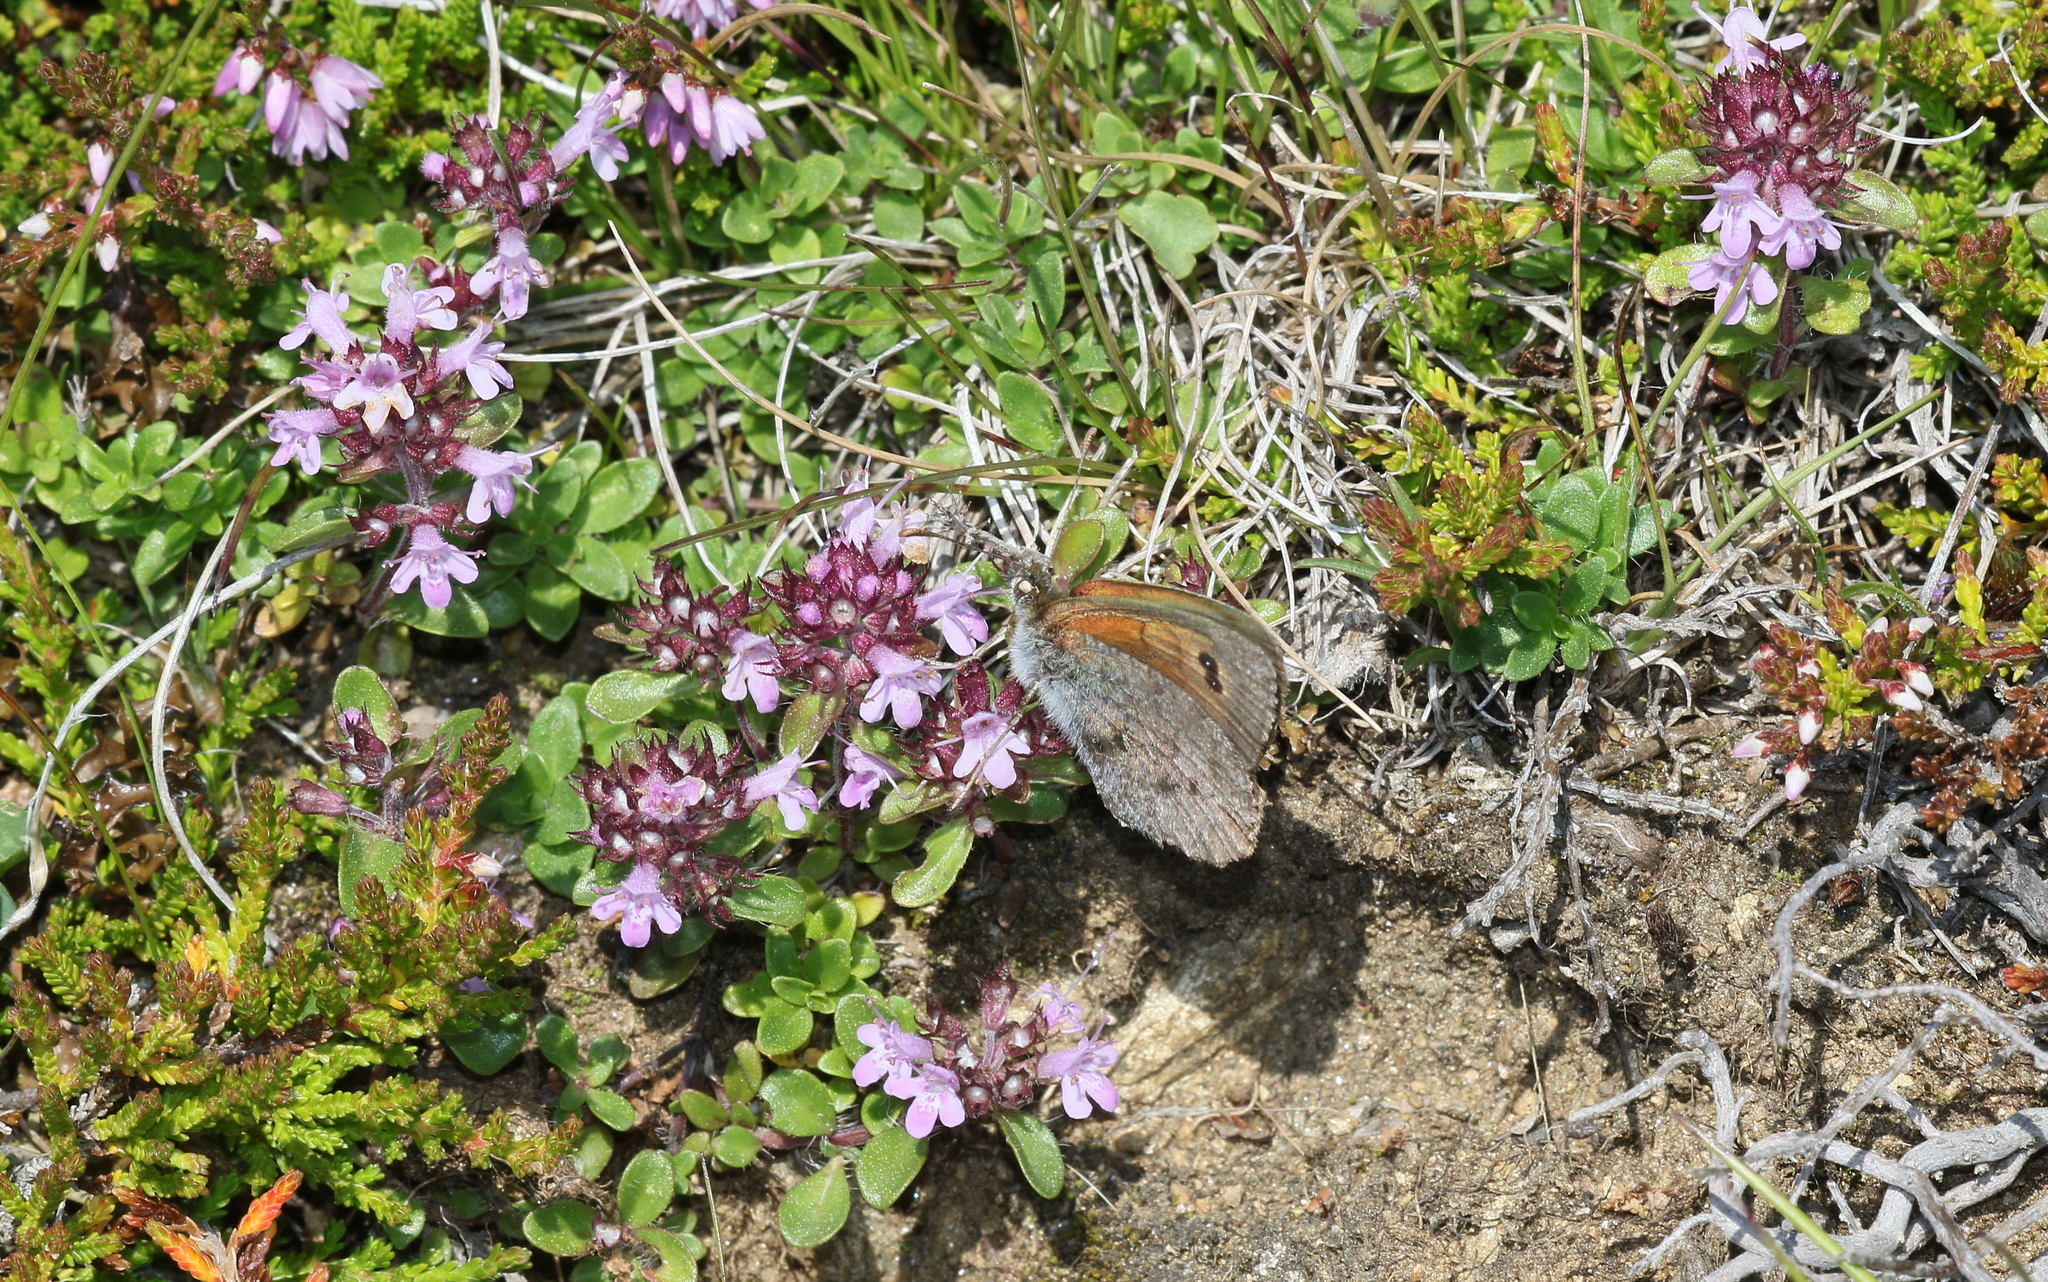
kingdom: Animalia
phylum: Arthropoda
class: Insecta
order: Lepidoptera
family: Nymphalidae
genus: Erebia
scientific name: Erebia cassioides
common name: Common brassy ringlet
